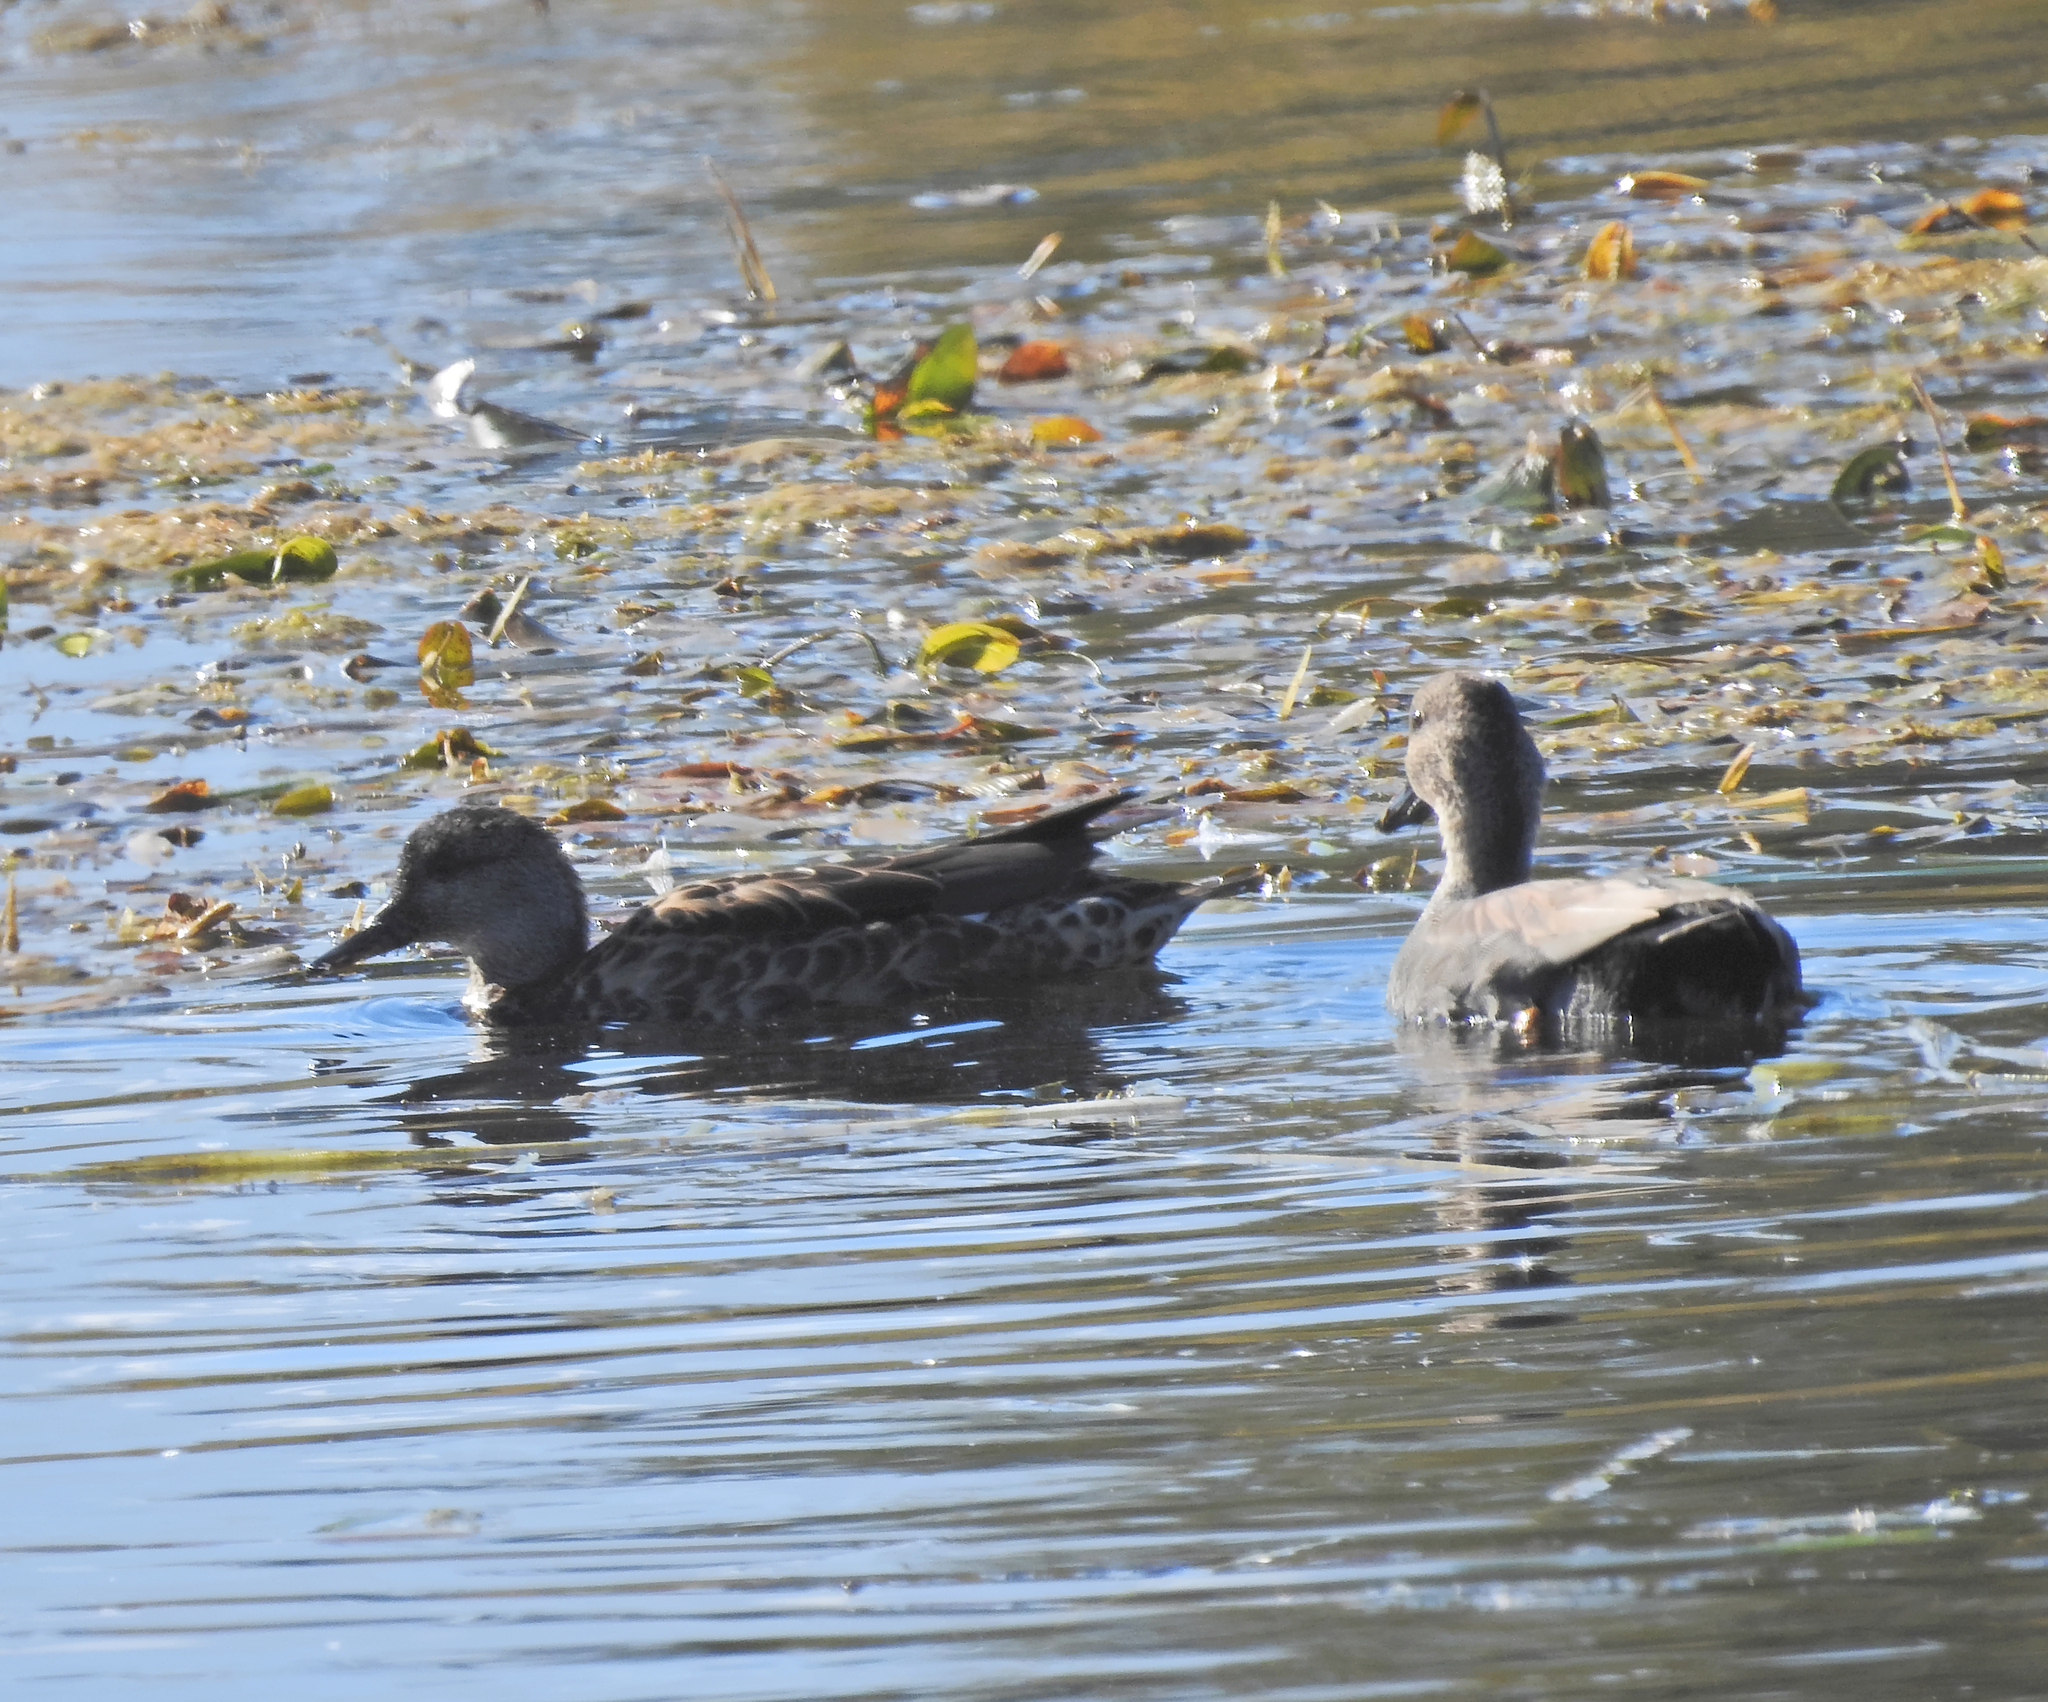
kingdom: Animalia
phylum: Chordata
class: Aves
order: Anseriformes
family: Anatidae
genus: Mareca
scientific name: Mareca strepera
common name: Gadwall
